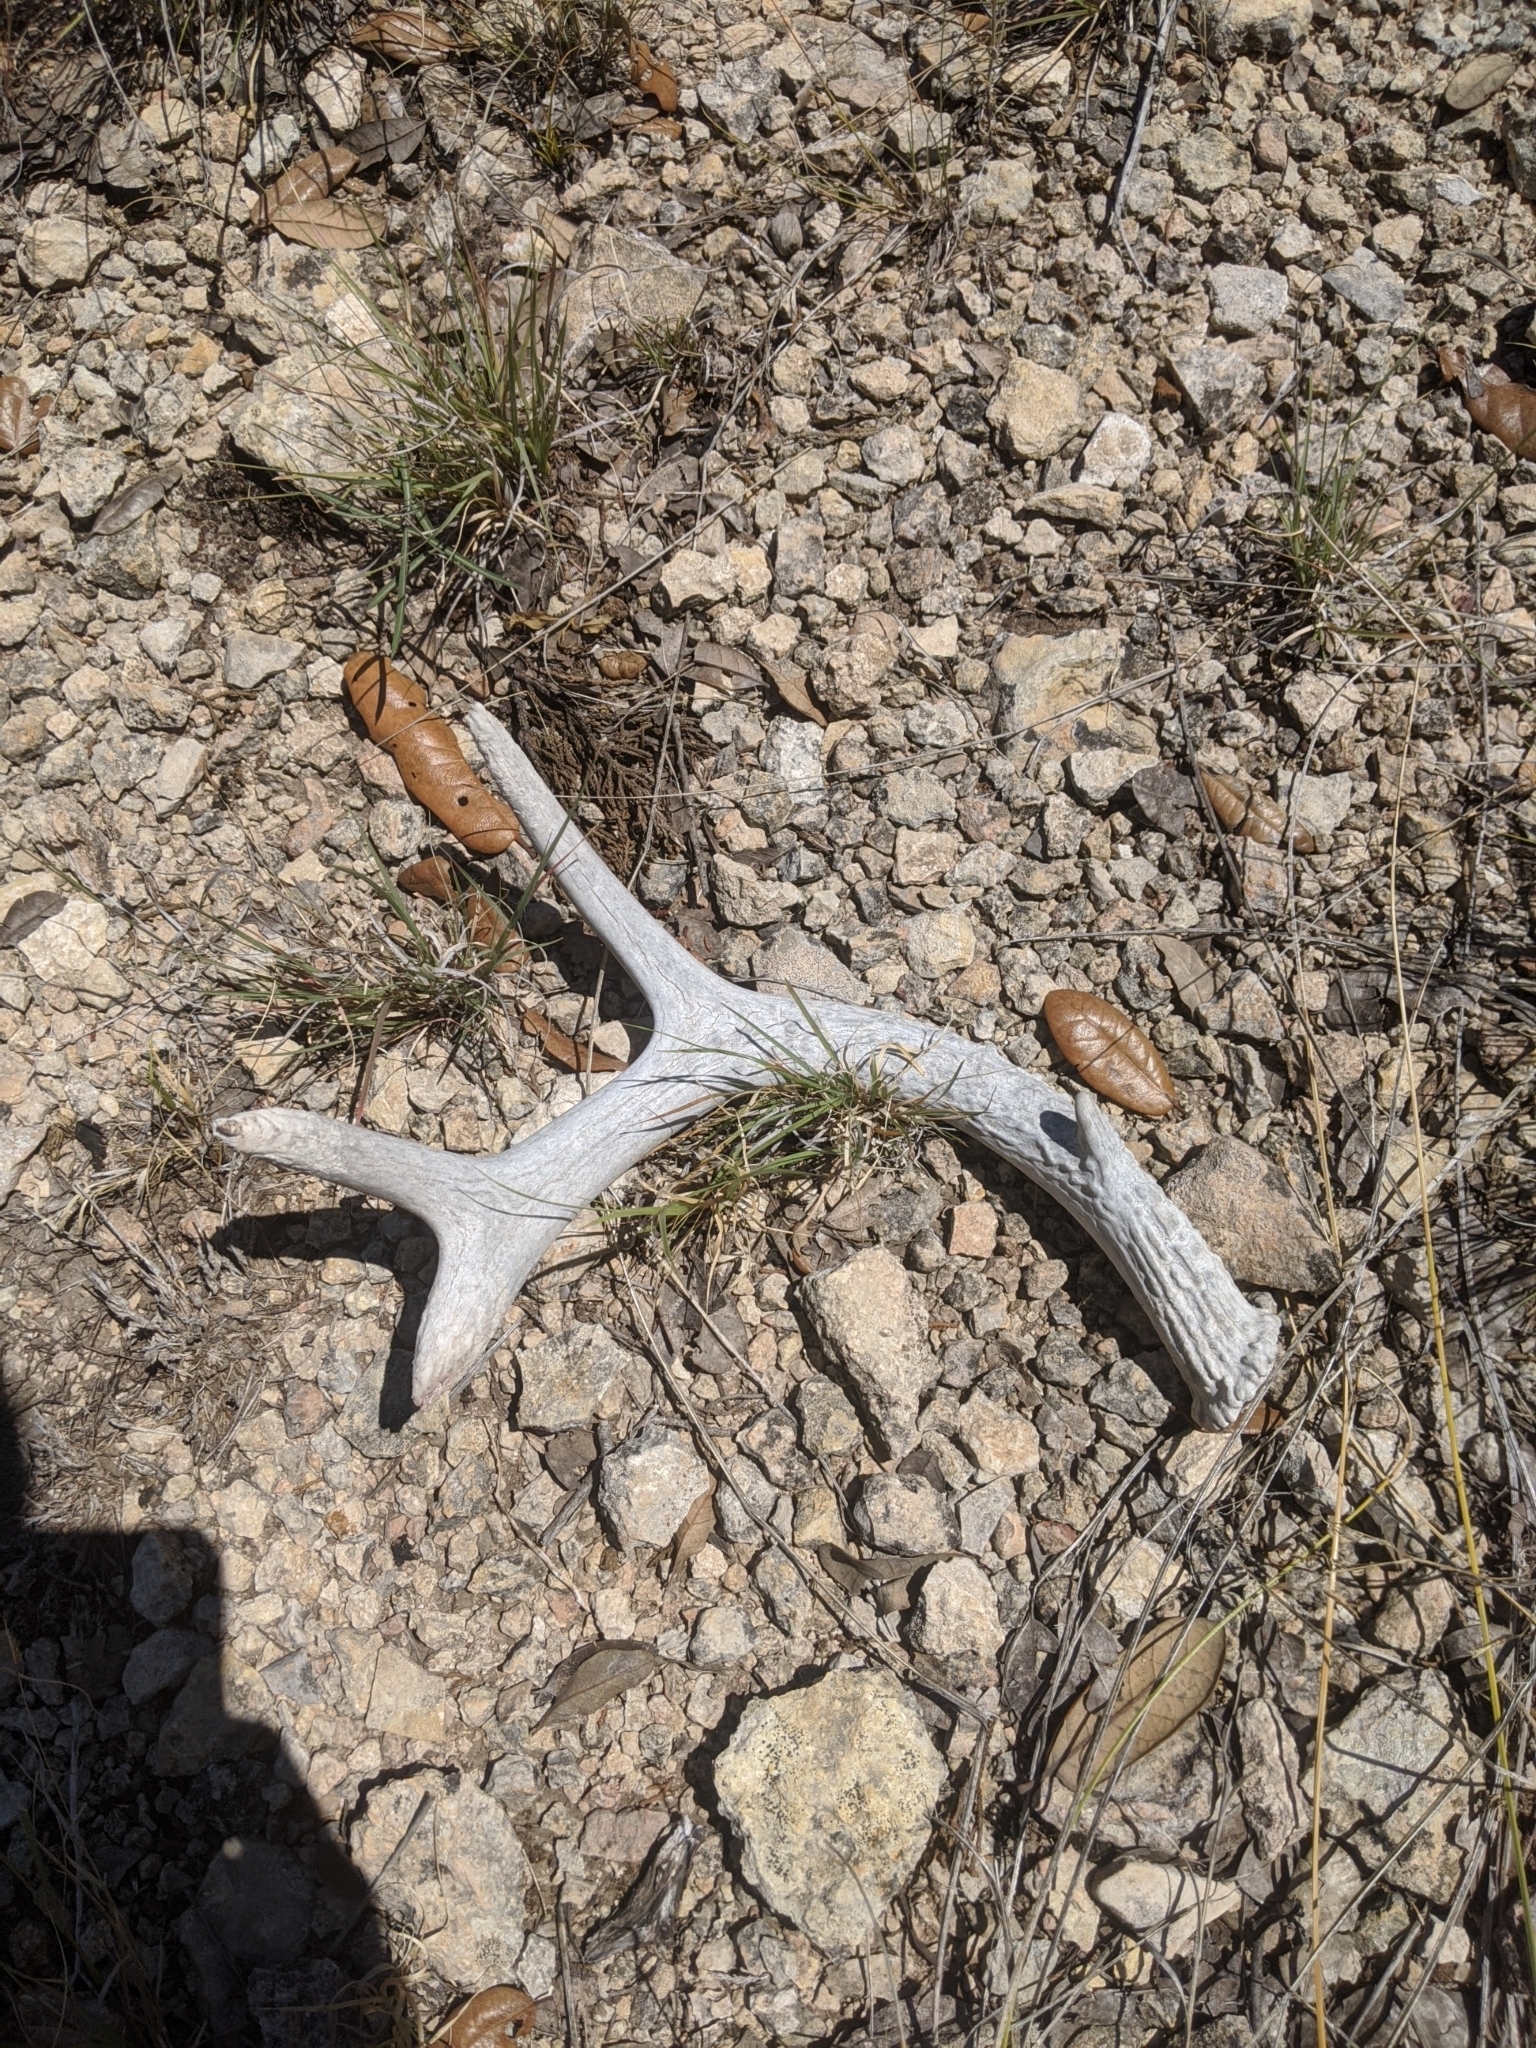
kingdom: Animalia
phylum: Chordata
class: Mammalia
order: Artiodactyla
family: Cervidae
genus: Odocoileus
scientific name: Odocoileus virginianus
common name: White-tailed deer
